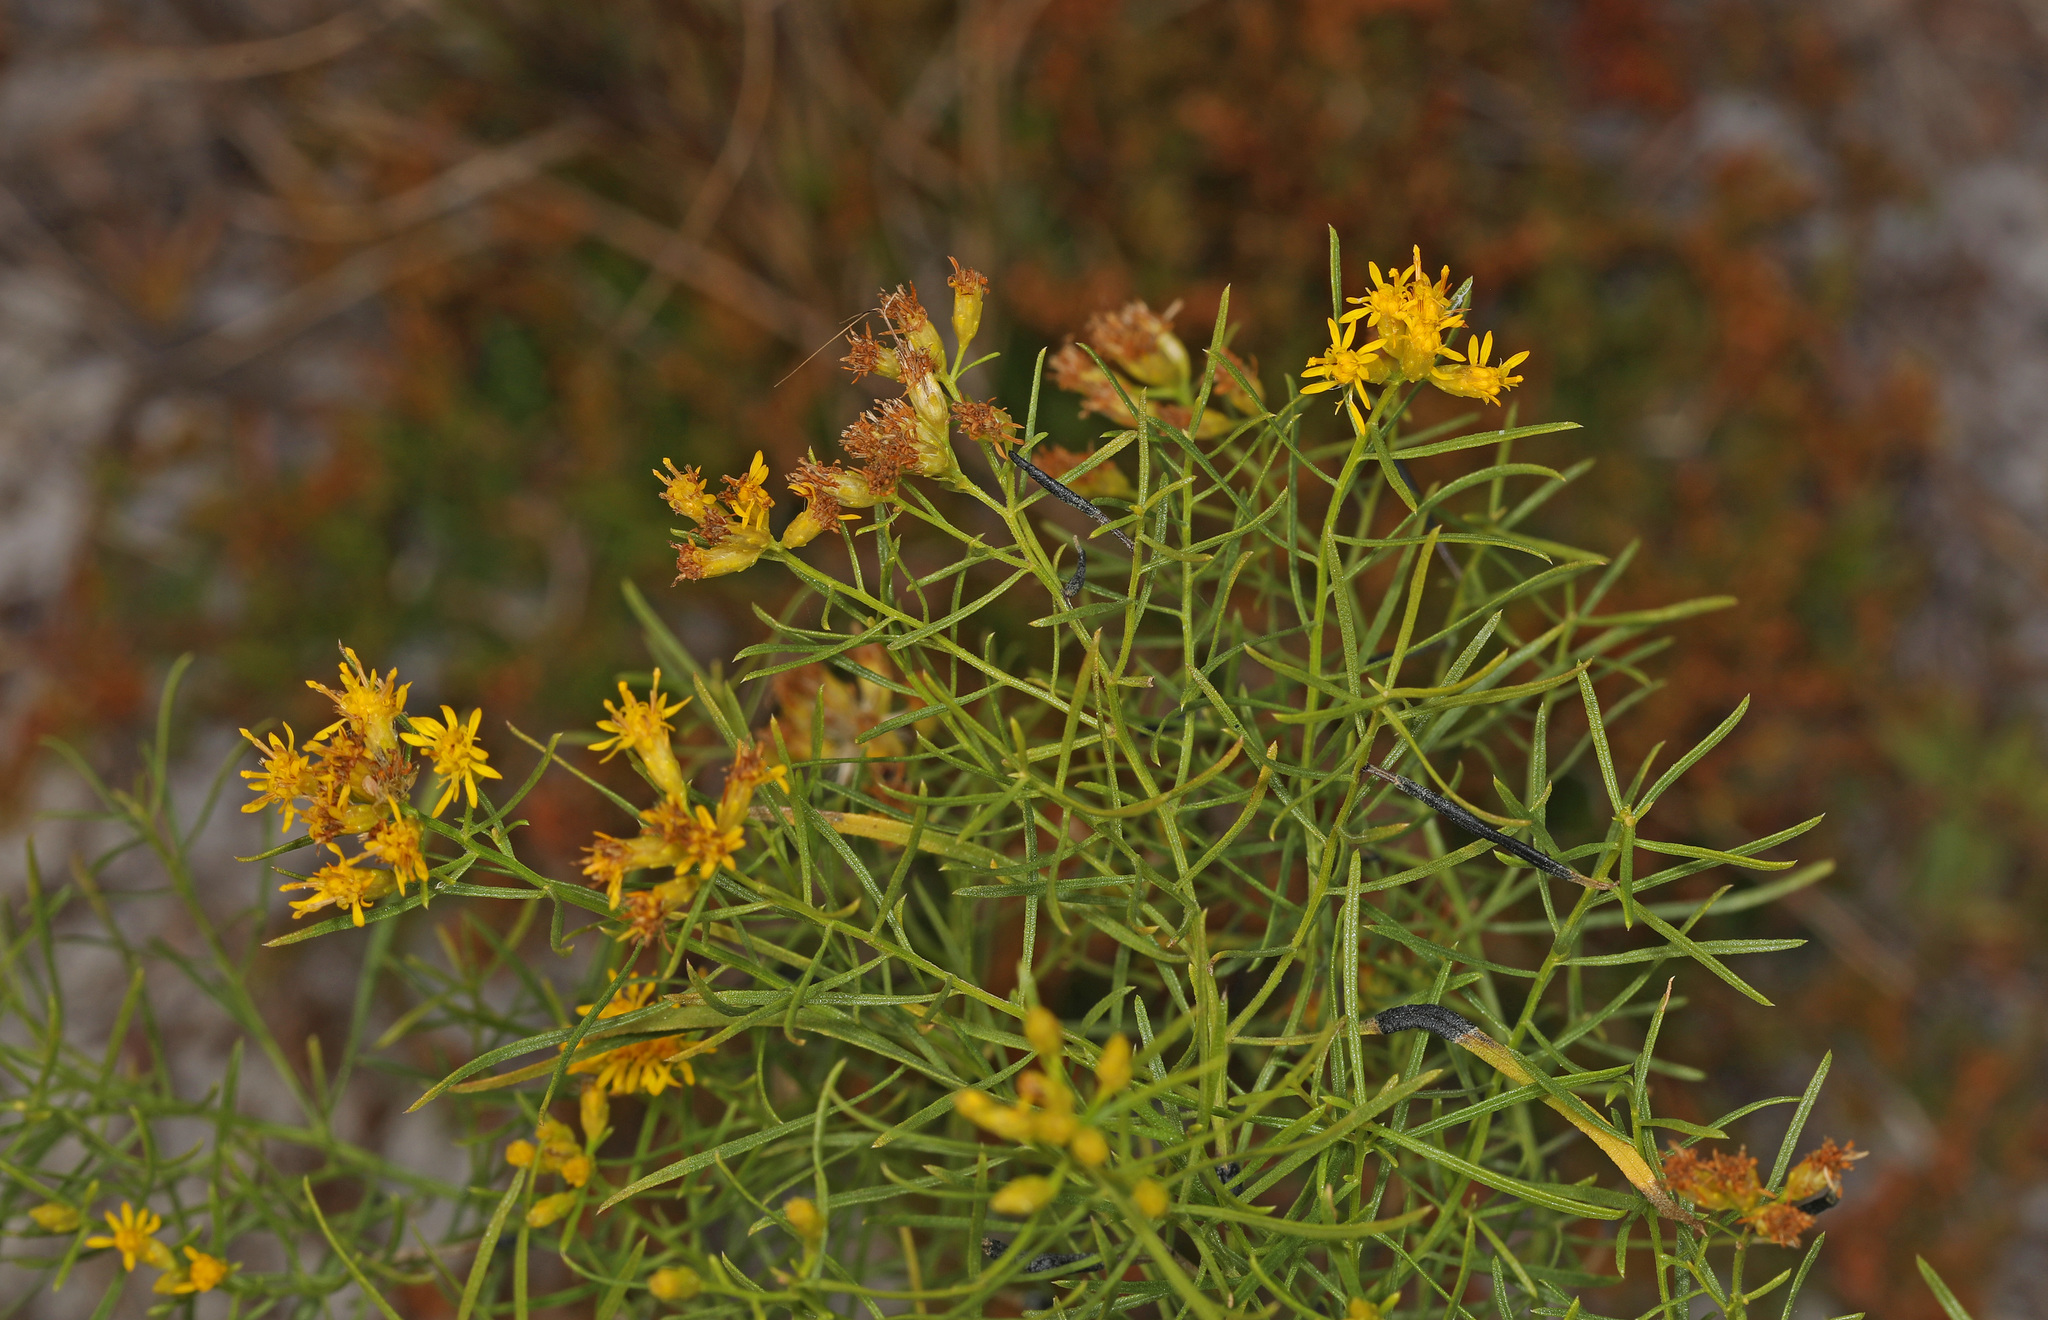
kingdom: Plantae
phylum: Tracheophyta
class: Magnoliopsida
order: Asterales
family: Asteraceae
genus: Euthamia
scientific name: Euthamia caroliniana
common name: Coastal plain goldentop
